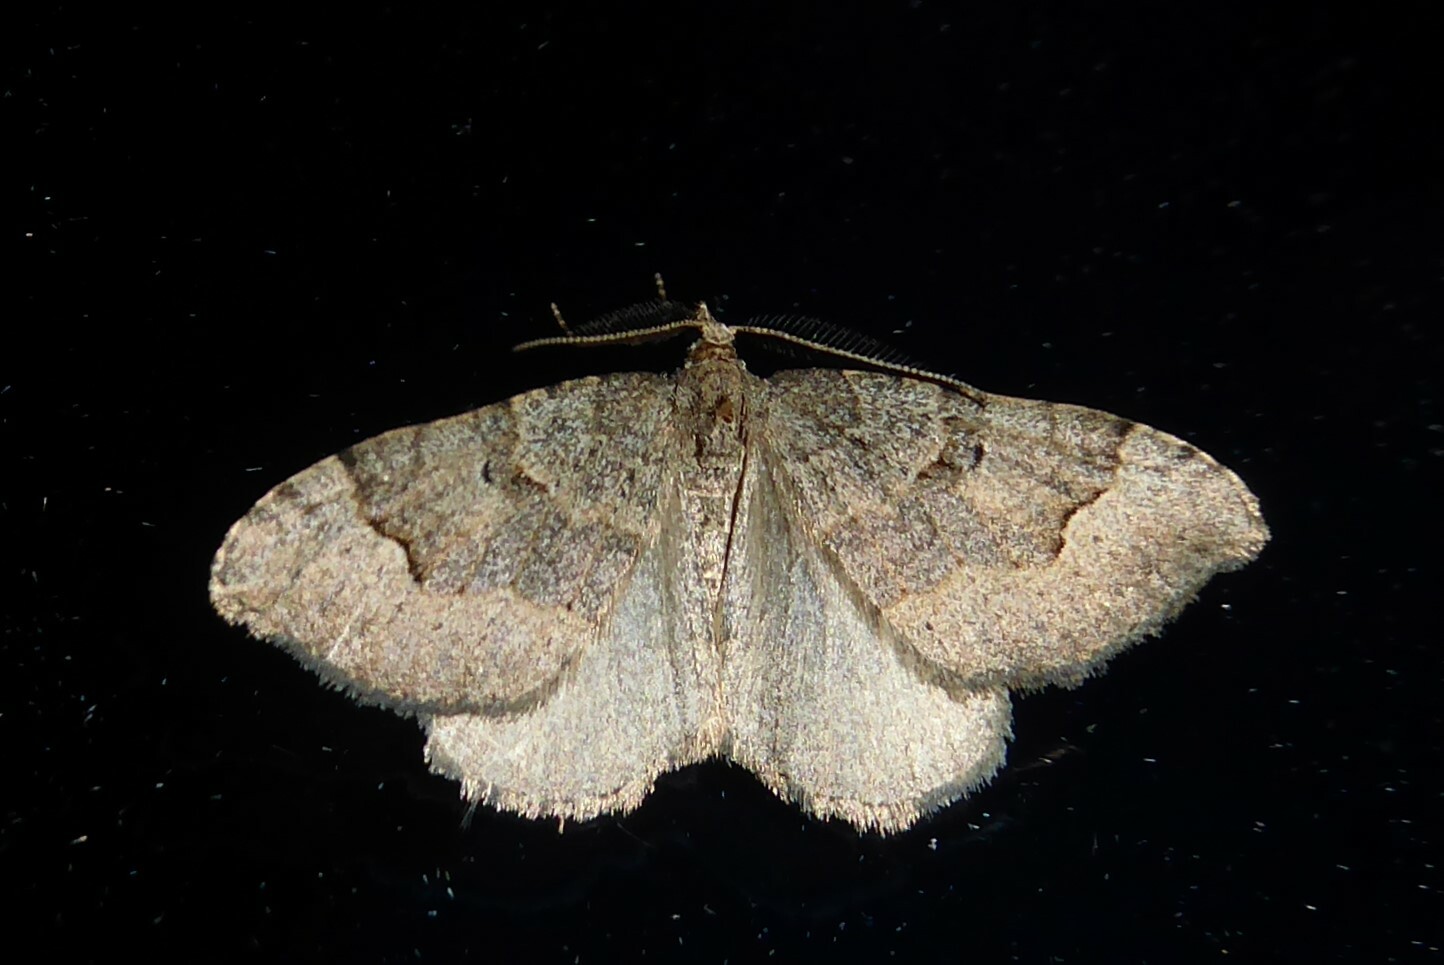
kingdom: Animalia
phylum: Arthropoda
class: Insecta
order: Lepidoptera
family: Geometridae
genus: Epyaxa
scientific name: Epyaxa rosearia
